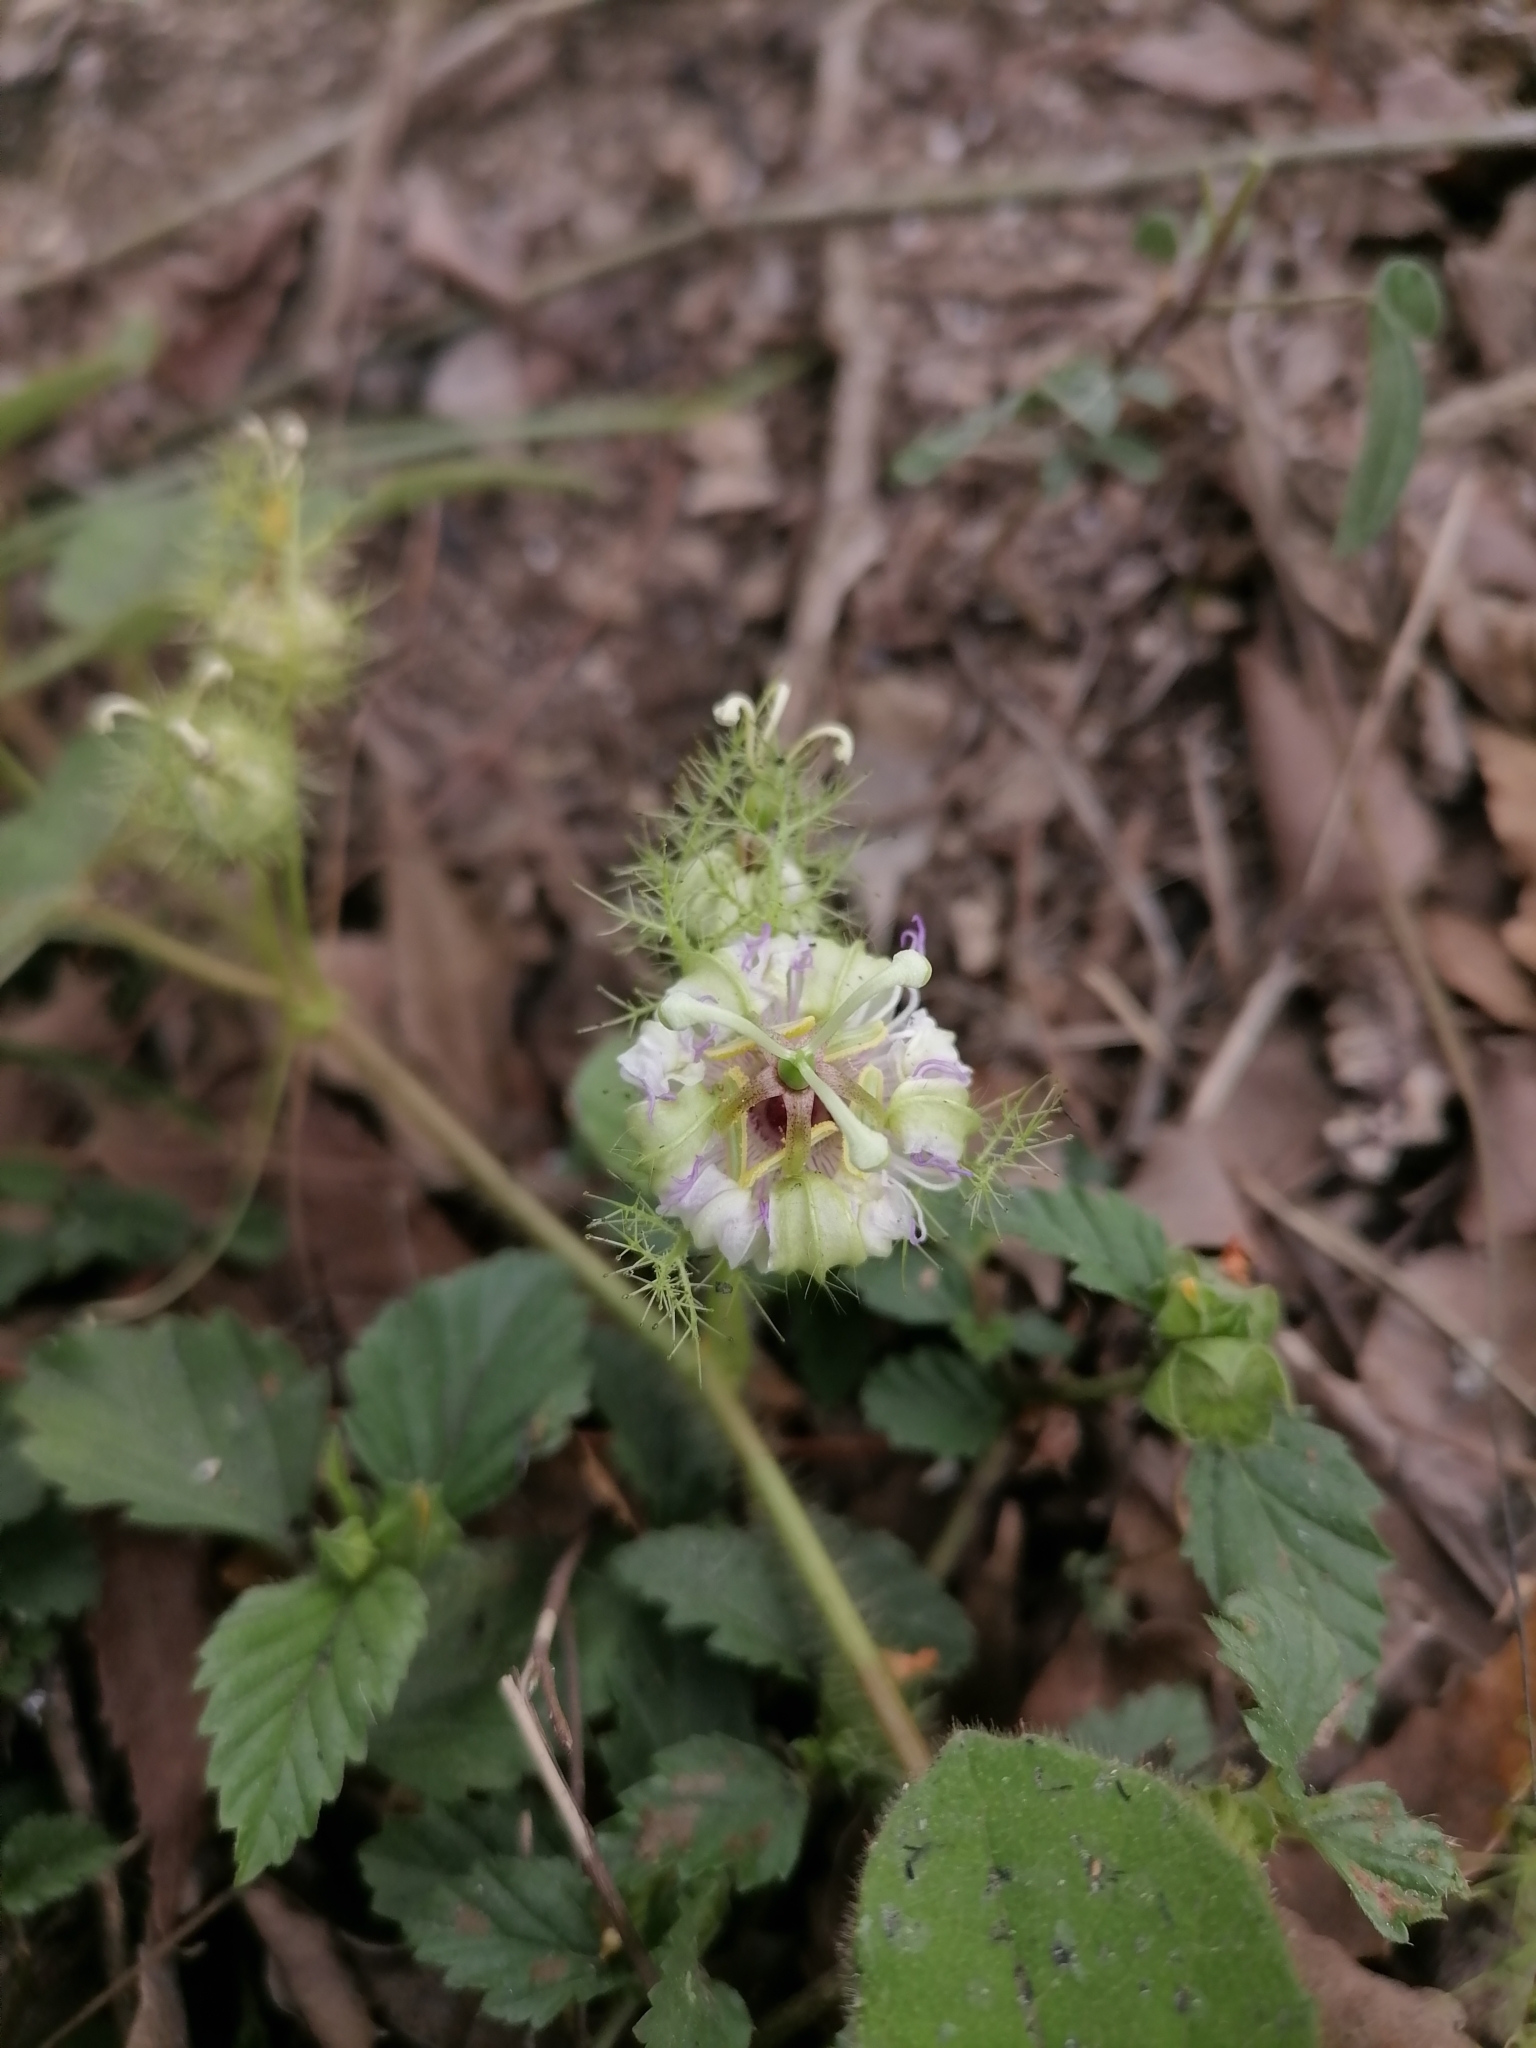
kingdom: Plantae
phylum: Tracheophyta
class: Magnoliopsida
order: Malpighiales
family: Passifloraceae
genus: Passiflora
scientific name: Passiflora foetida
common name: Fetid passionflower
